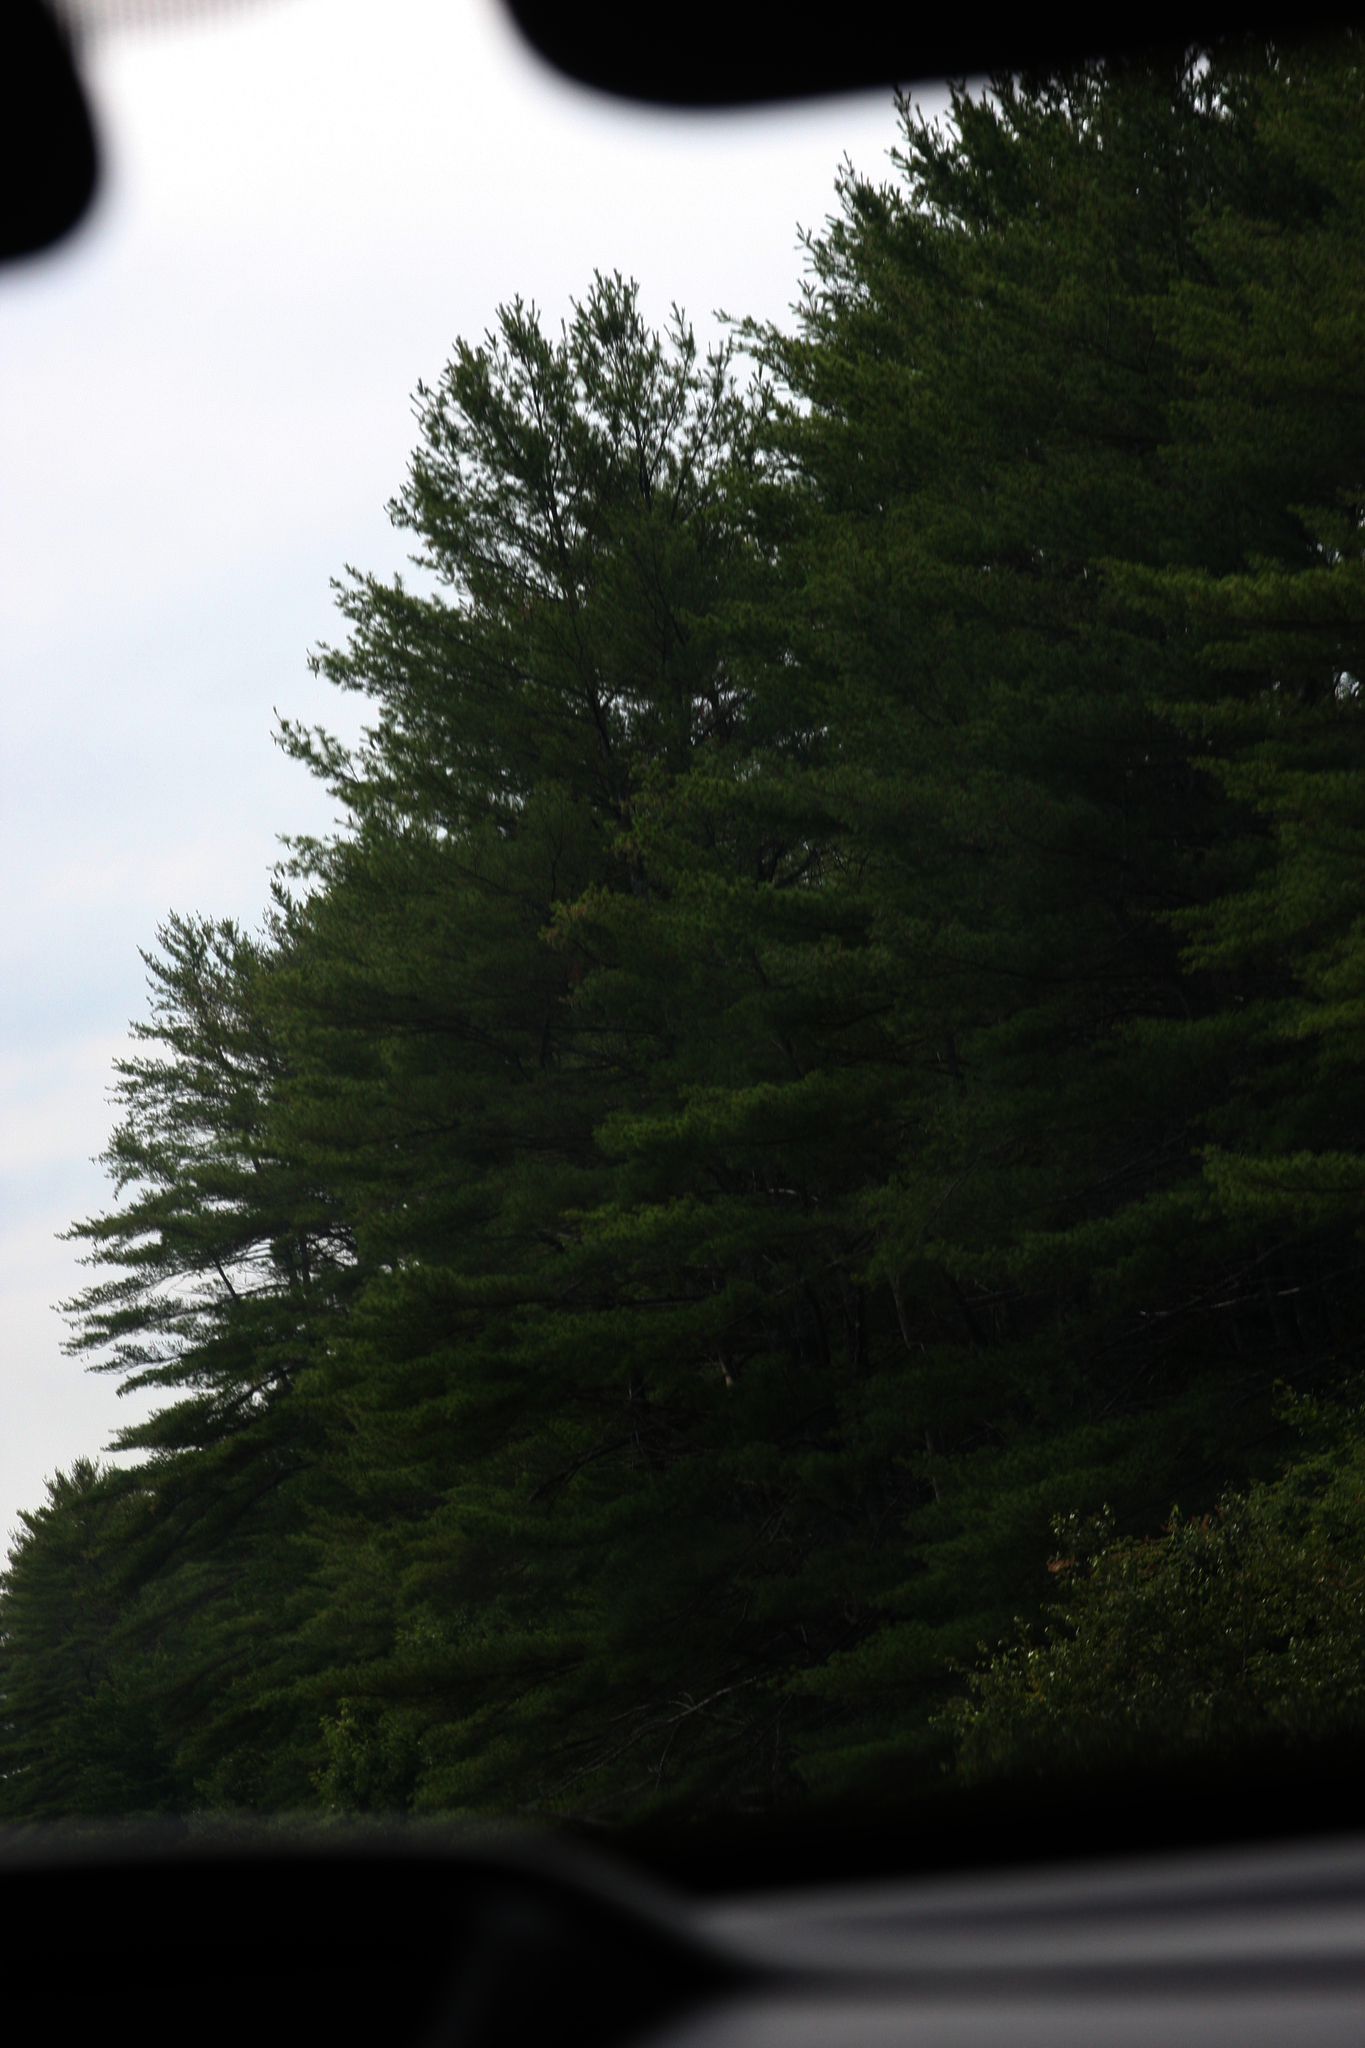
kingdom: Plantae
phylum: Tracheophyta
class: Pinopsida
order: Pinales
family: Pinaceae
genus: Pinus
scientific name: Pinus strobus
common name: Weymouth pine
